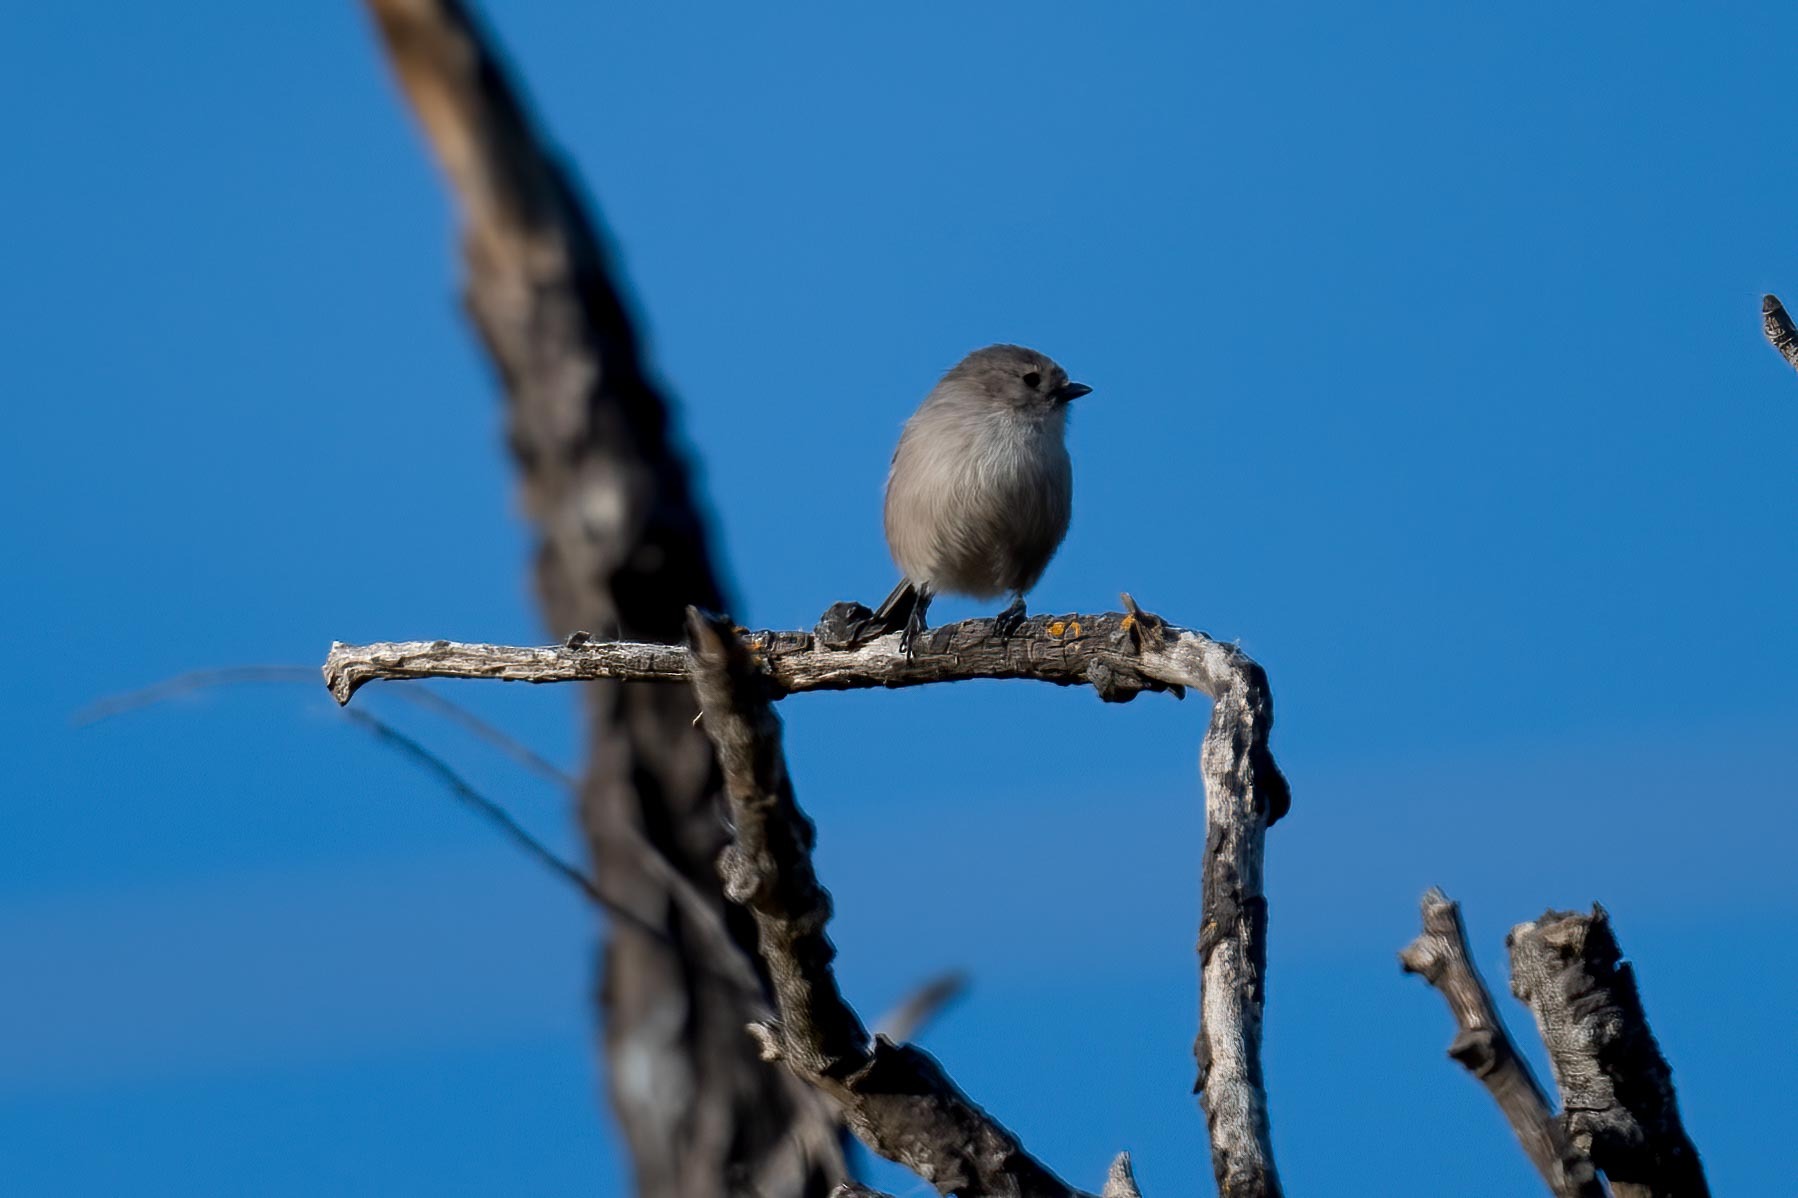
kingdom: Animalia
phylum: Chordata
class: Aves
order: Passeriformes
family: Aegithalidae
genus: Psaltriparus
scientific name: Psaltriparus minimus
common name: American bushtit
